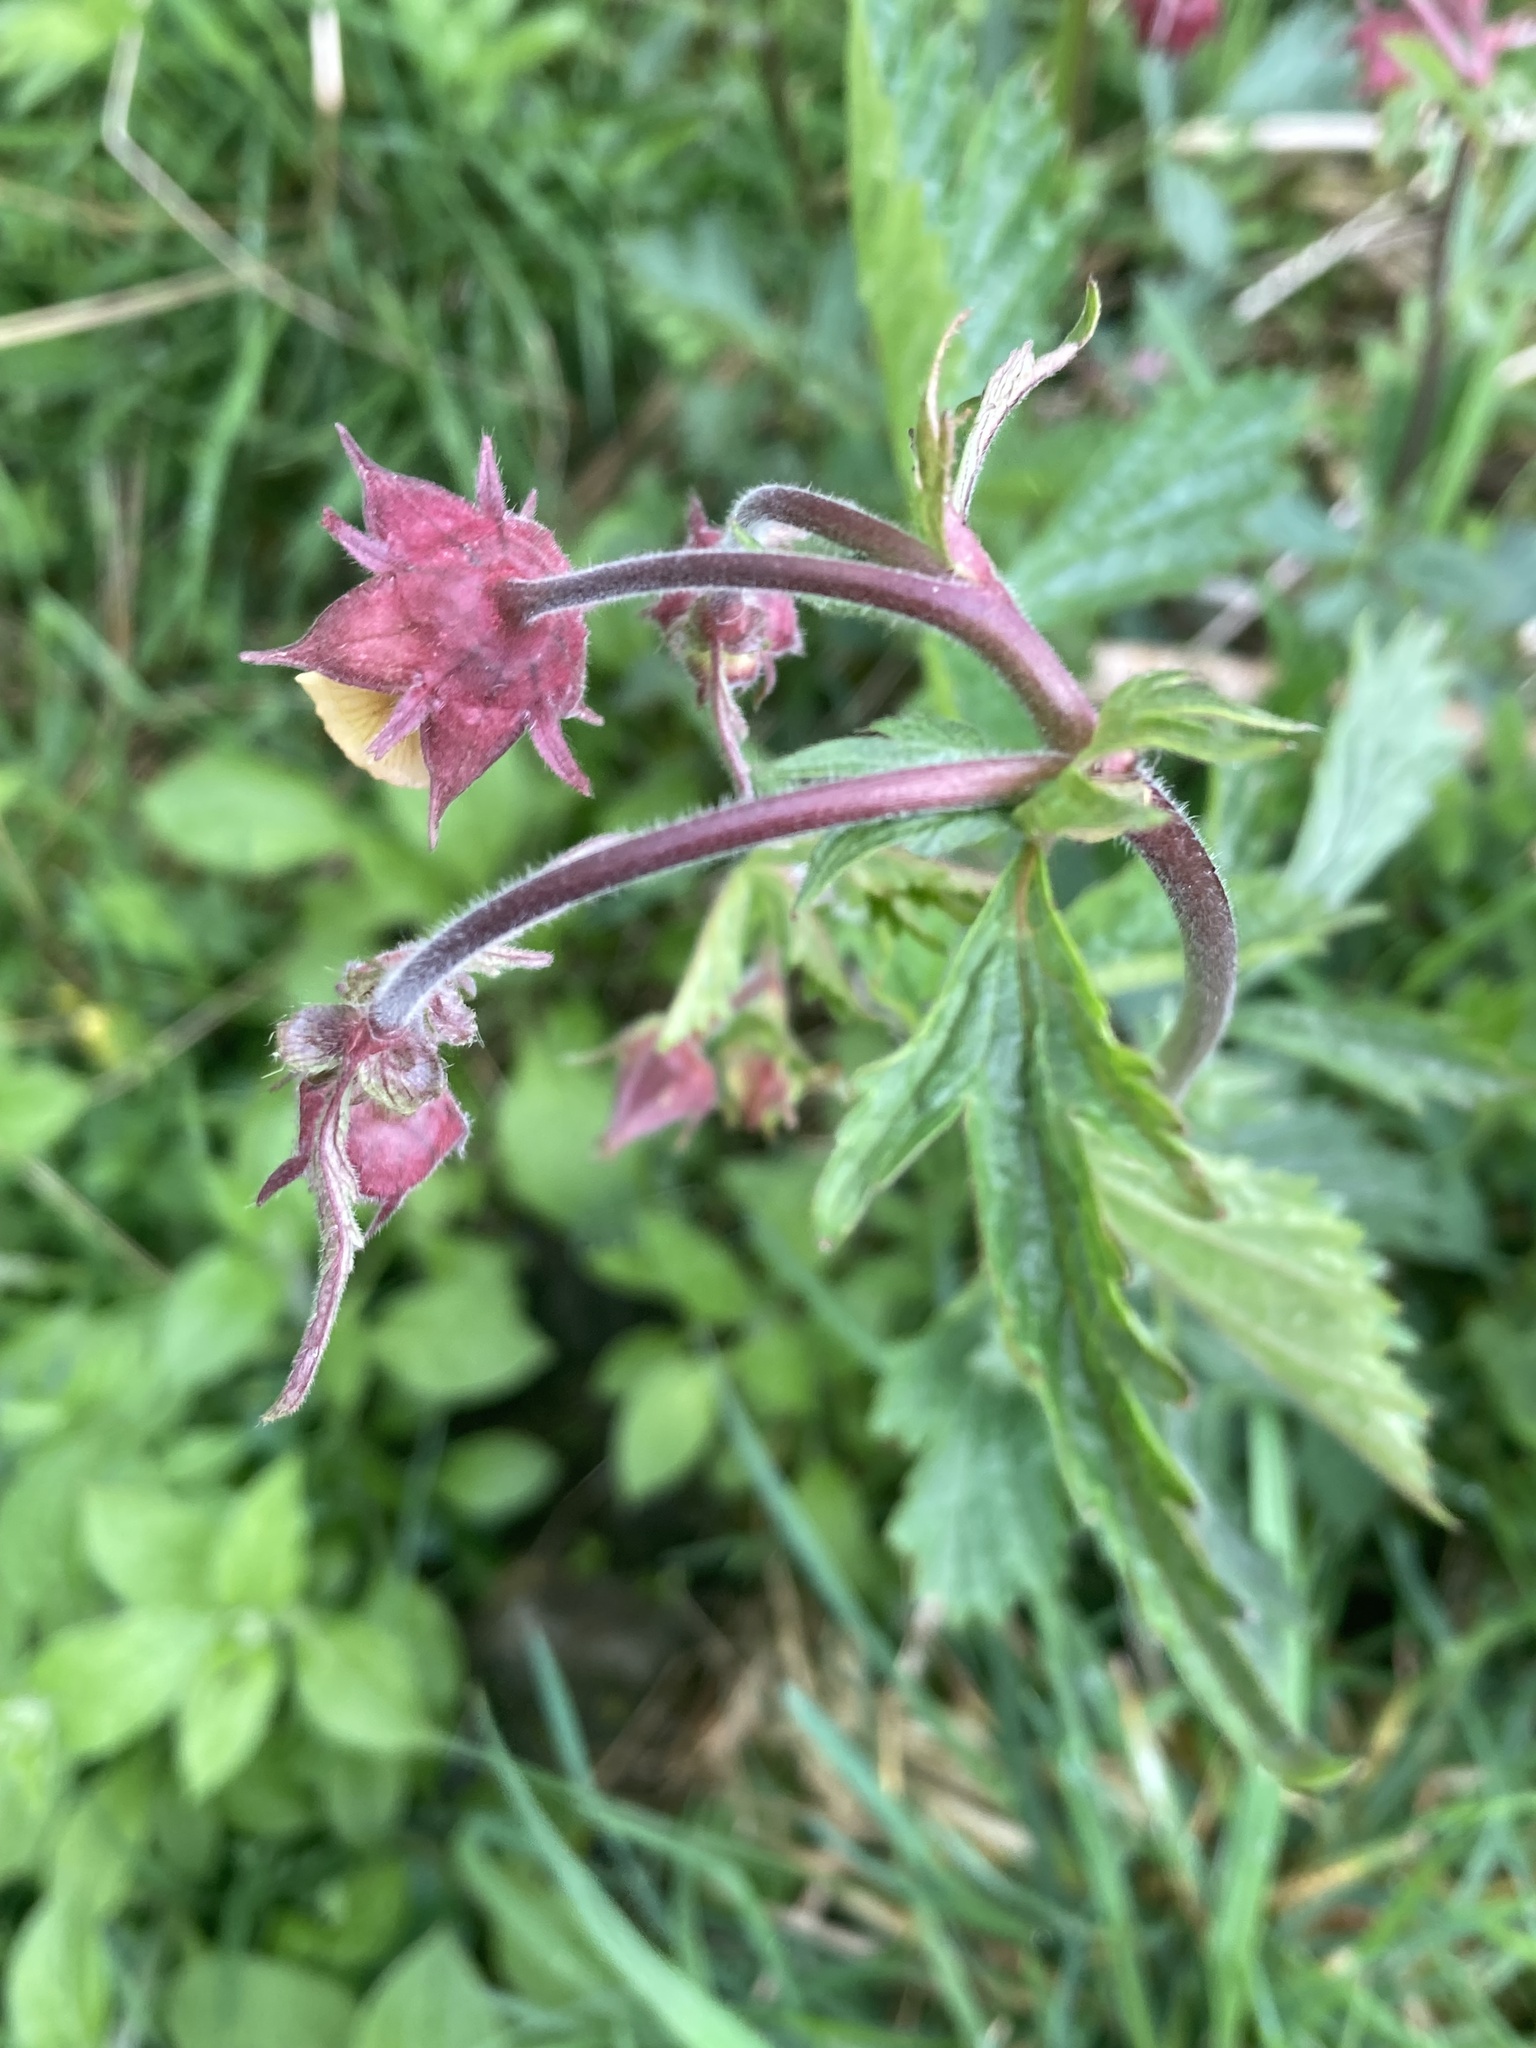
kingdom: Plantae
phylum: Tracheophyta
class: Magnoliopsida
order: Rosales
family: Rosaceae
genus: Geum
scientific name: Geum rivale
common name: Water avens
